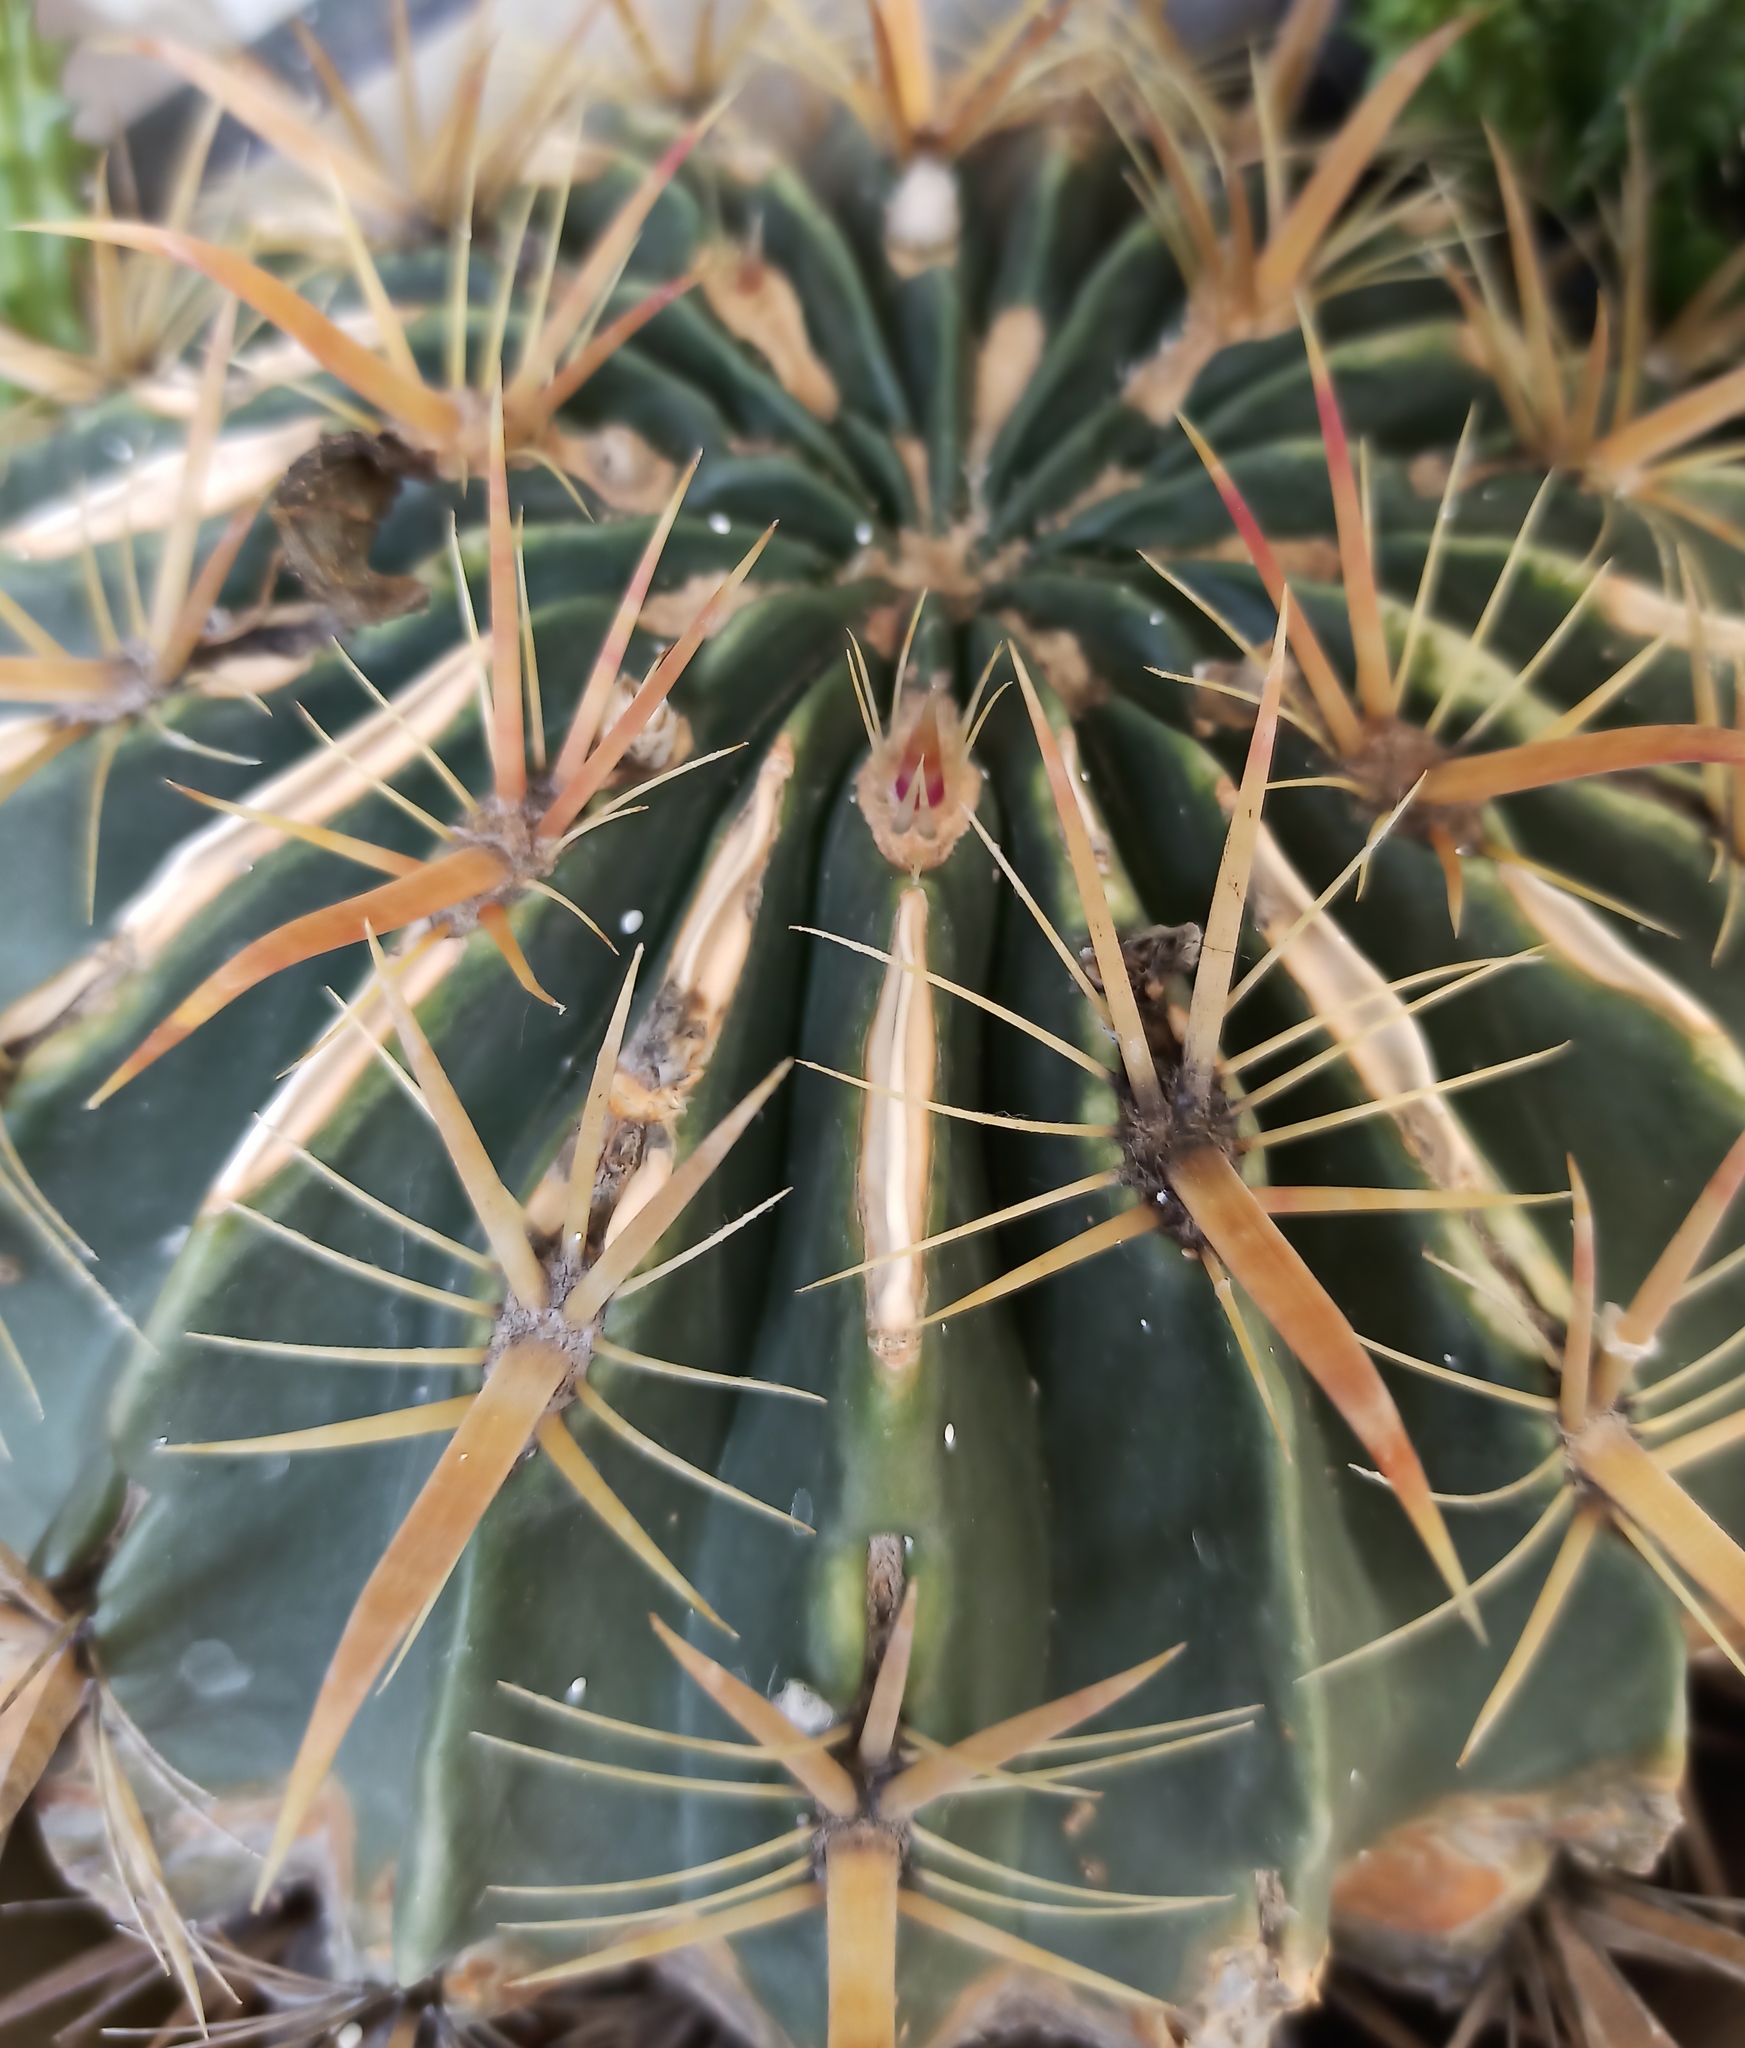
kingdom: Plantae
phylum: Tracheophyta
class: Magnoliopsida
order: Caryophyllales
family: Cactaceae
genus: Ferocactus
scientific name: Ferocactus latispinus
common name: Devil's-tongue cactus
